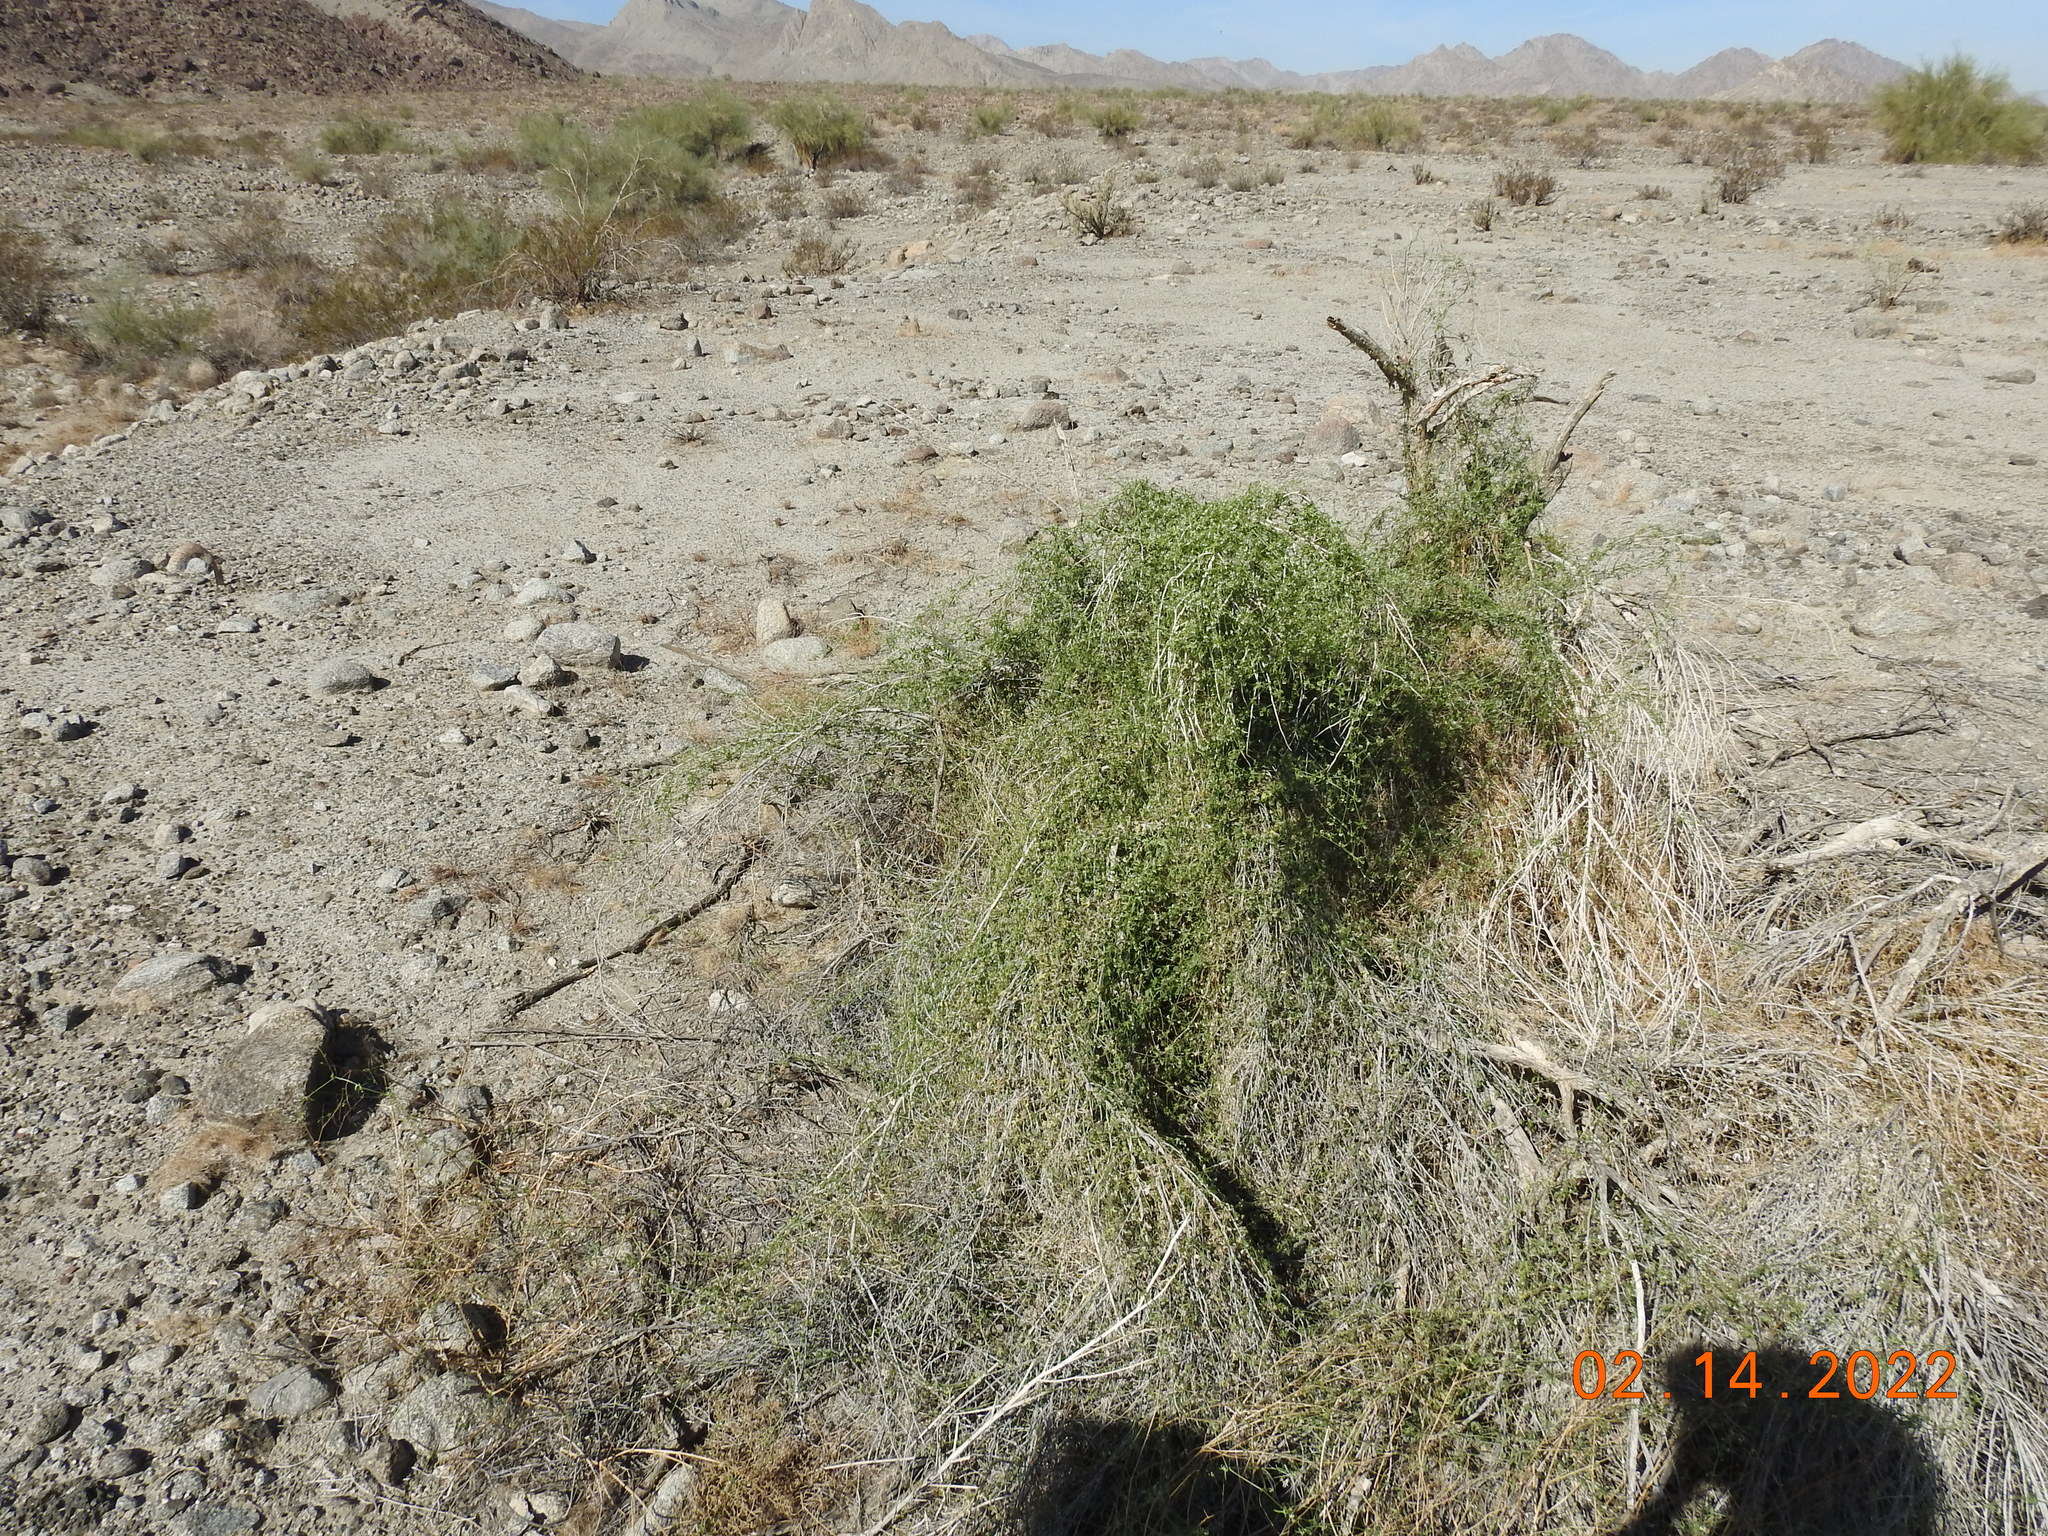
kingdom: Plantae
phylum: Tracheophyta
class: Magnoliopsida
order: Cucurbitales
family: Cucurbitaceae
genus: Echinopepon
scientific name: Echinopepon bigelovii
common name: Desert starvine
